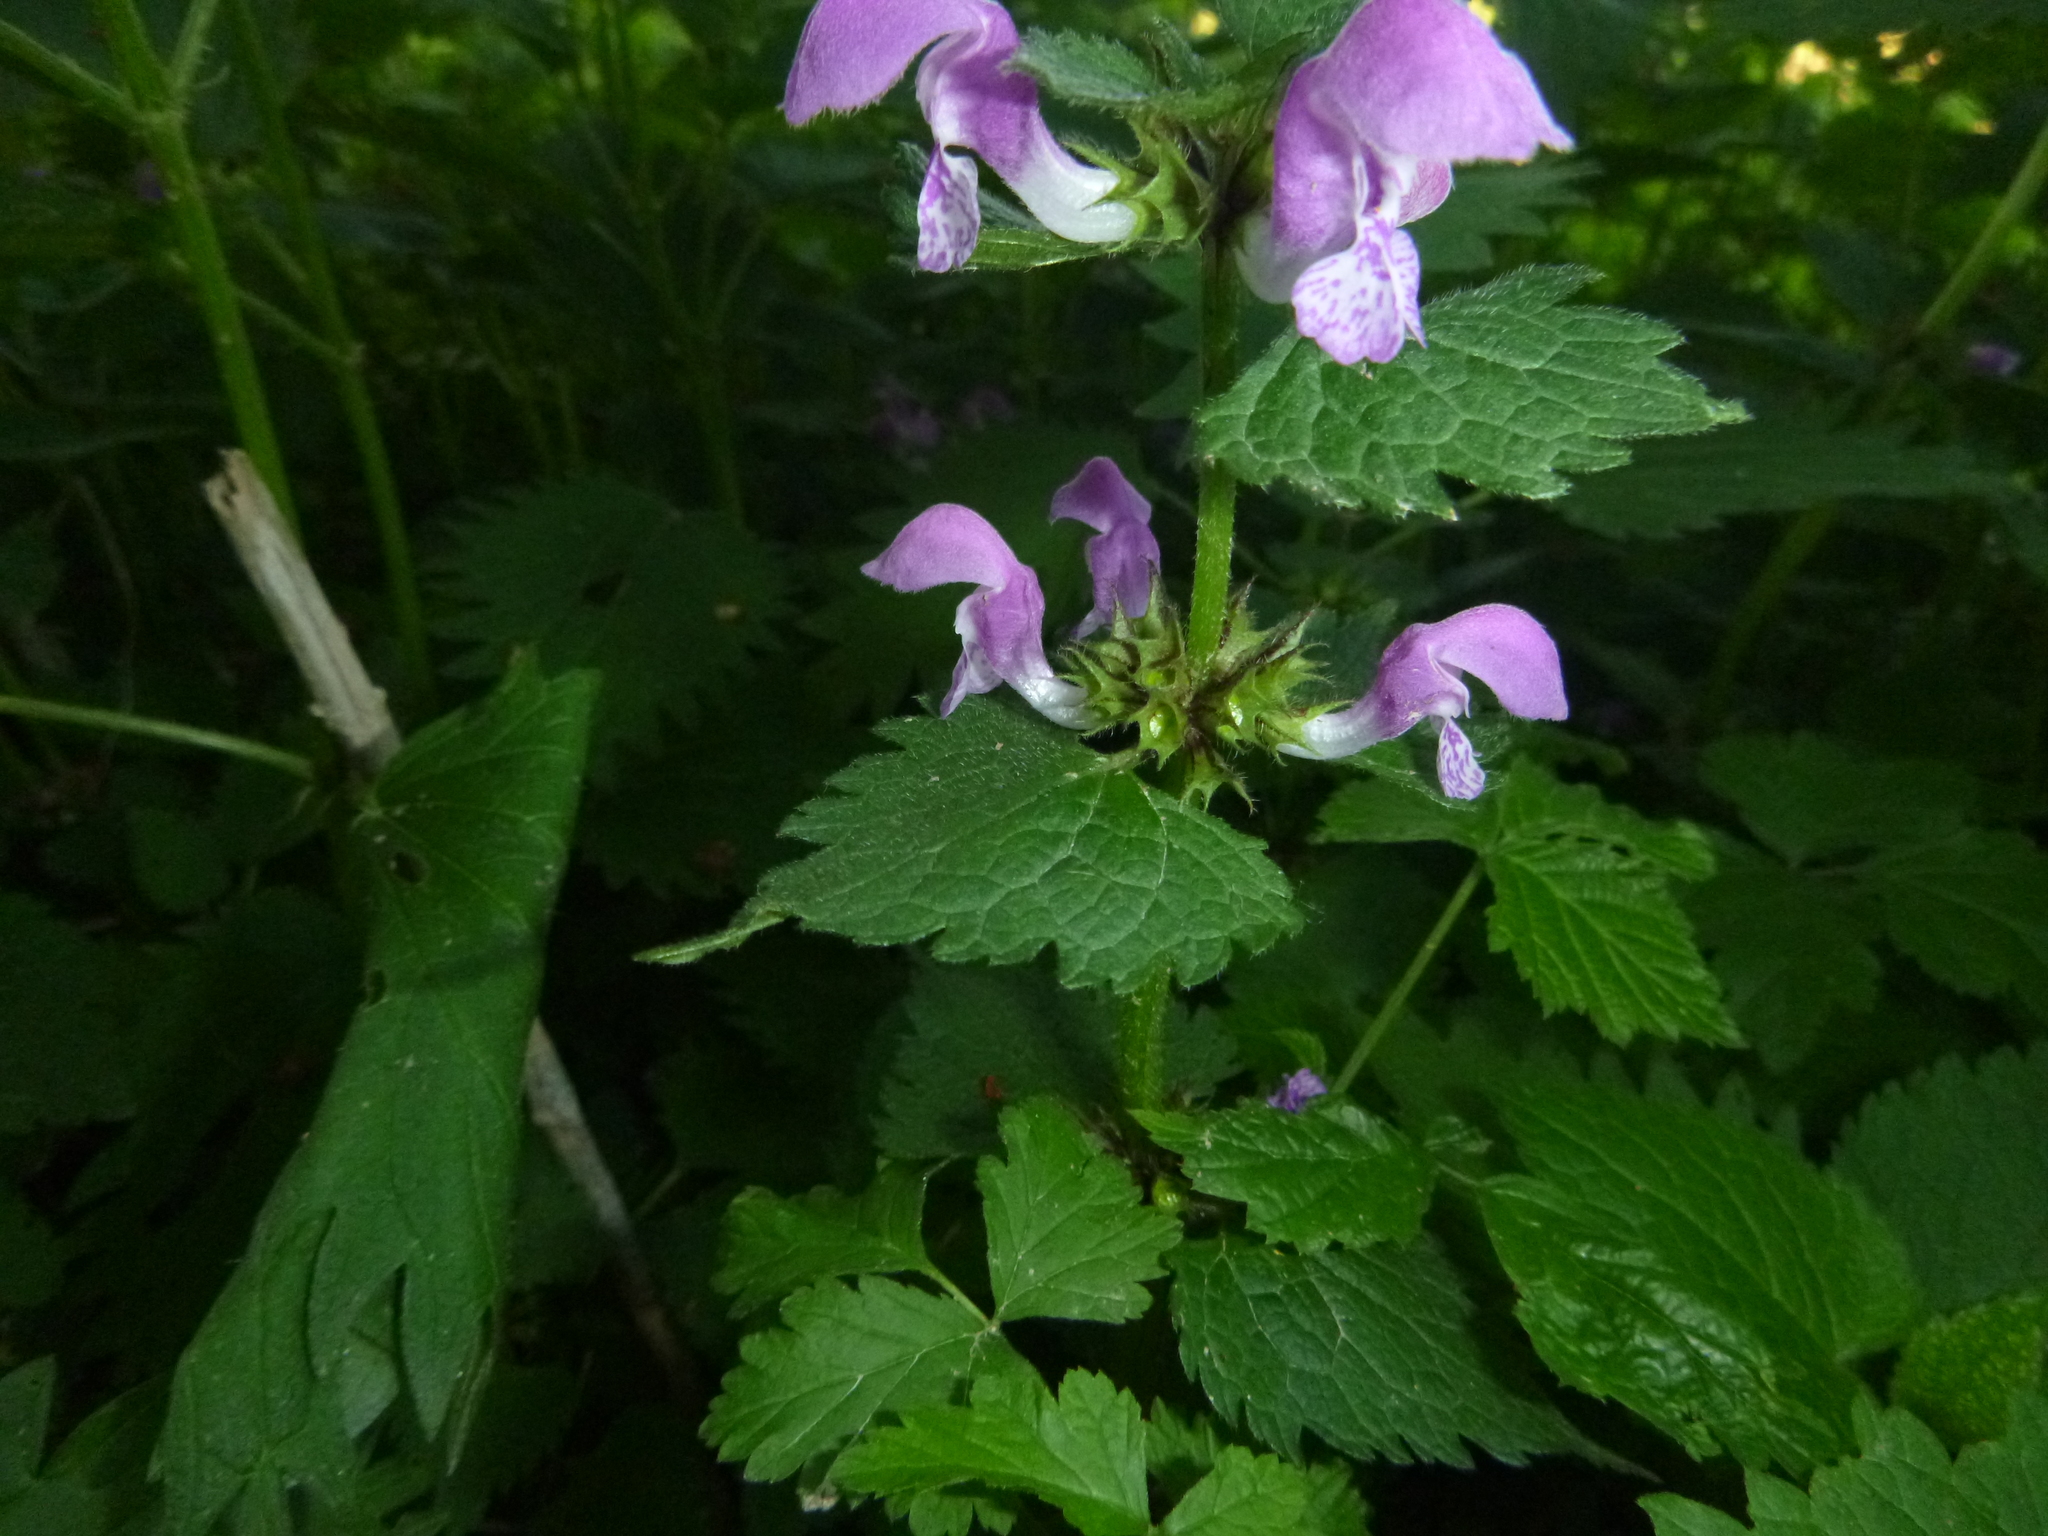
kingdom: Plantae
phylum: Tracheophyta
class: Magnoliopsida
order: Lamiales
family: Lamiaceae
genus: Lamium
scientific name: Lamium maculatum
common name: Spotted dead-nettle
